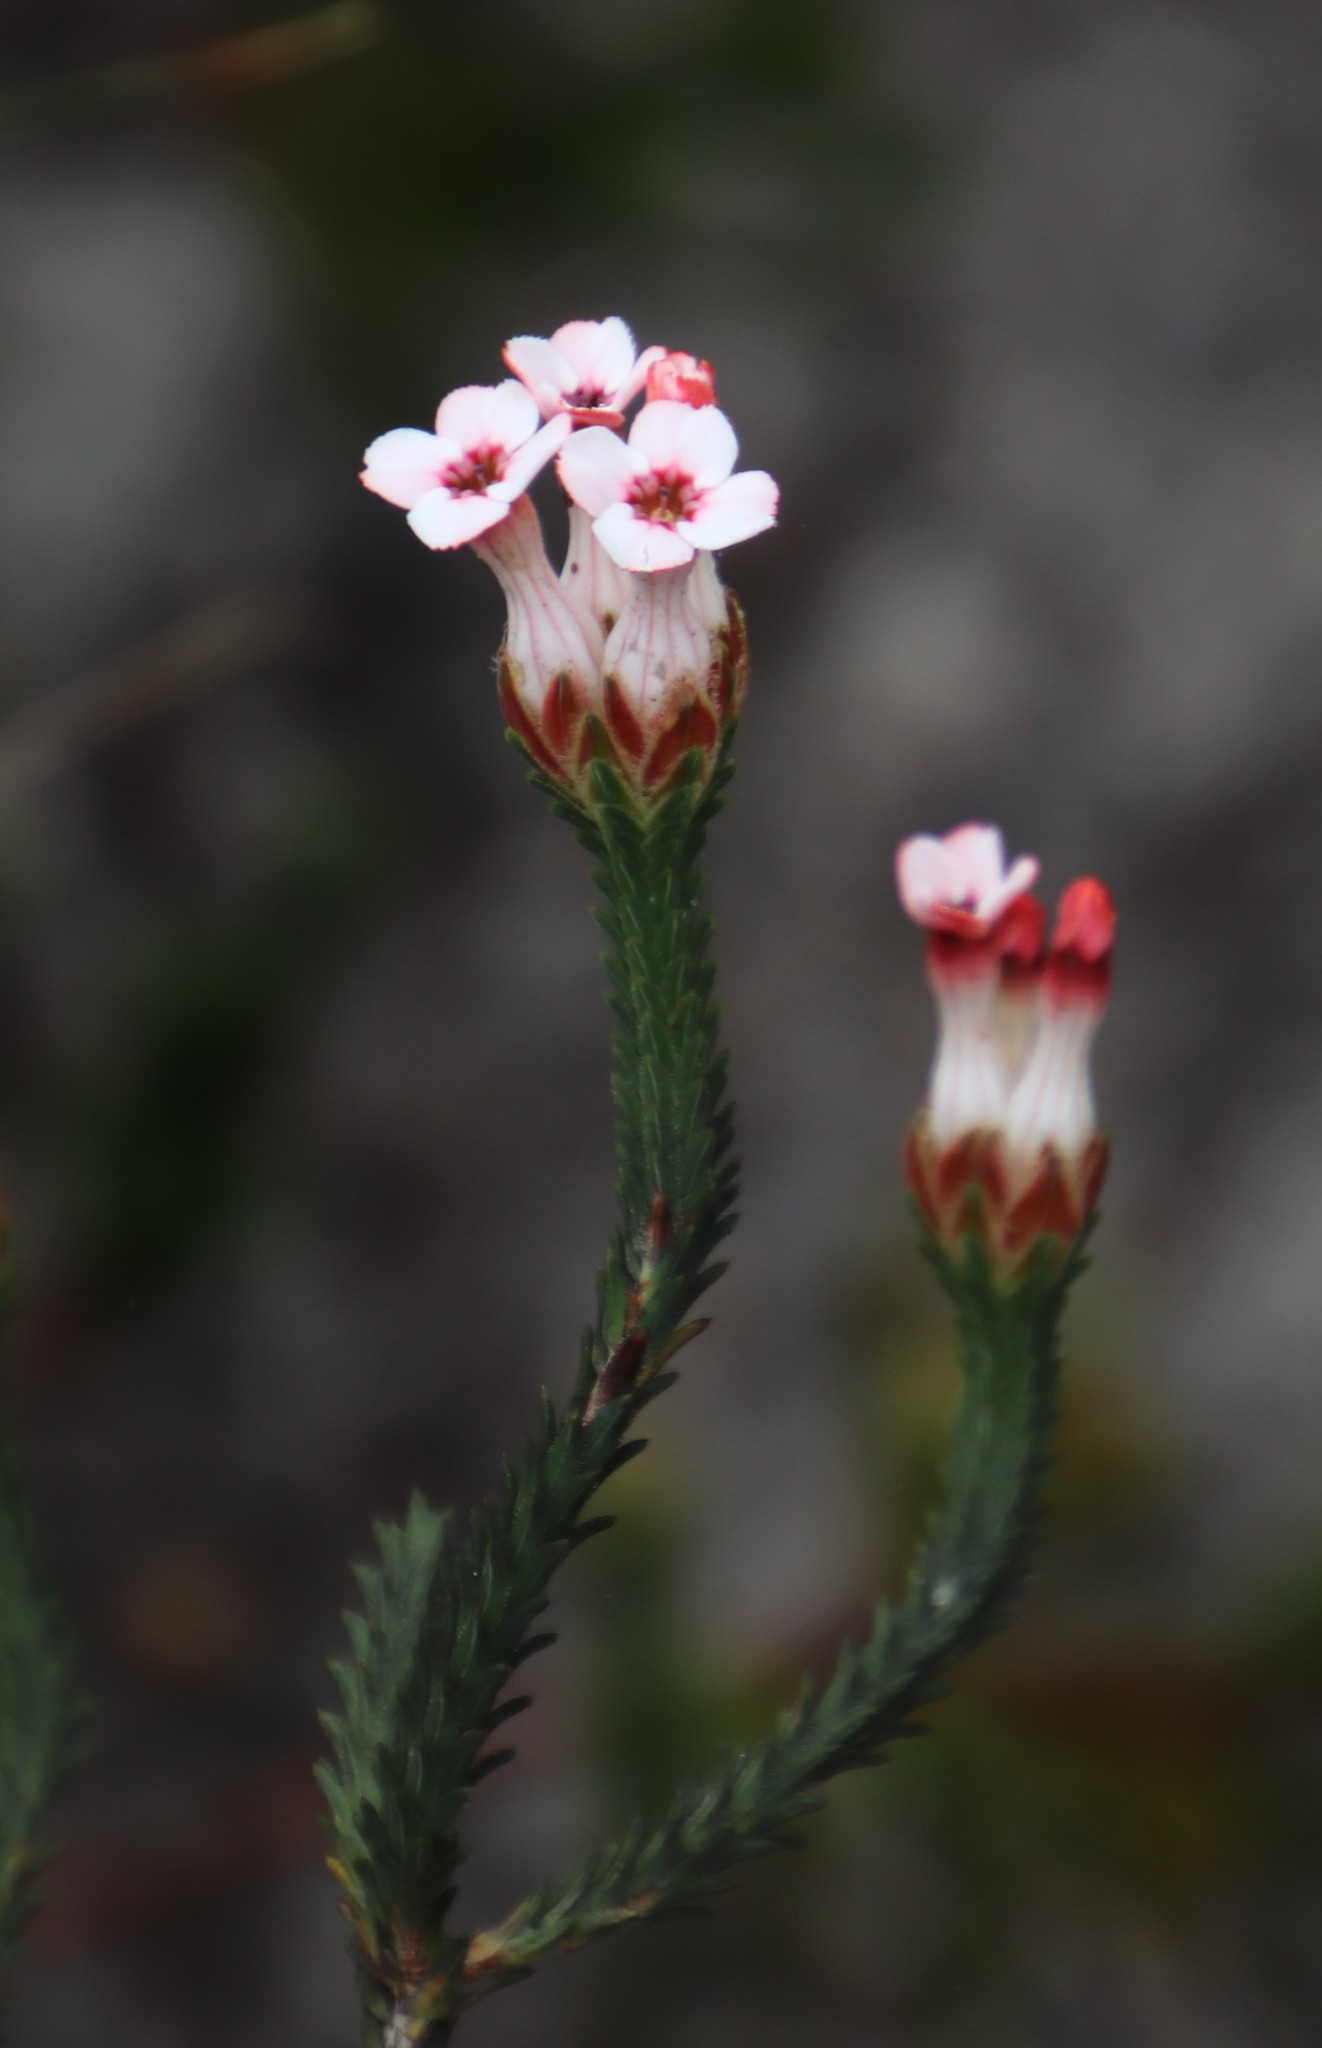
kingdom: Plantae
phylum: Tracheophyta
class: Magnoliopsida
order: Ericales
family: Ericaceae
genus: Erica
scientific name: Erica ampullacea
